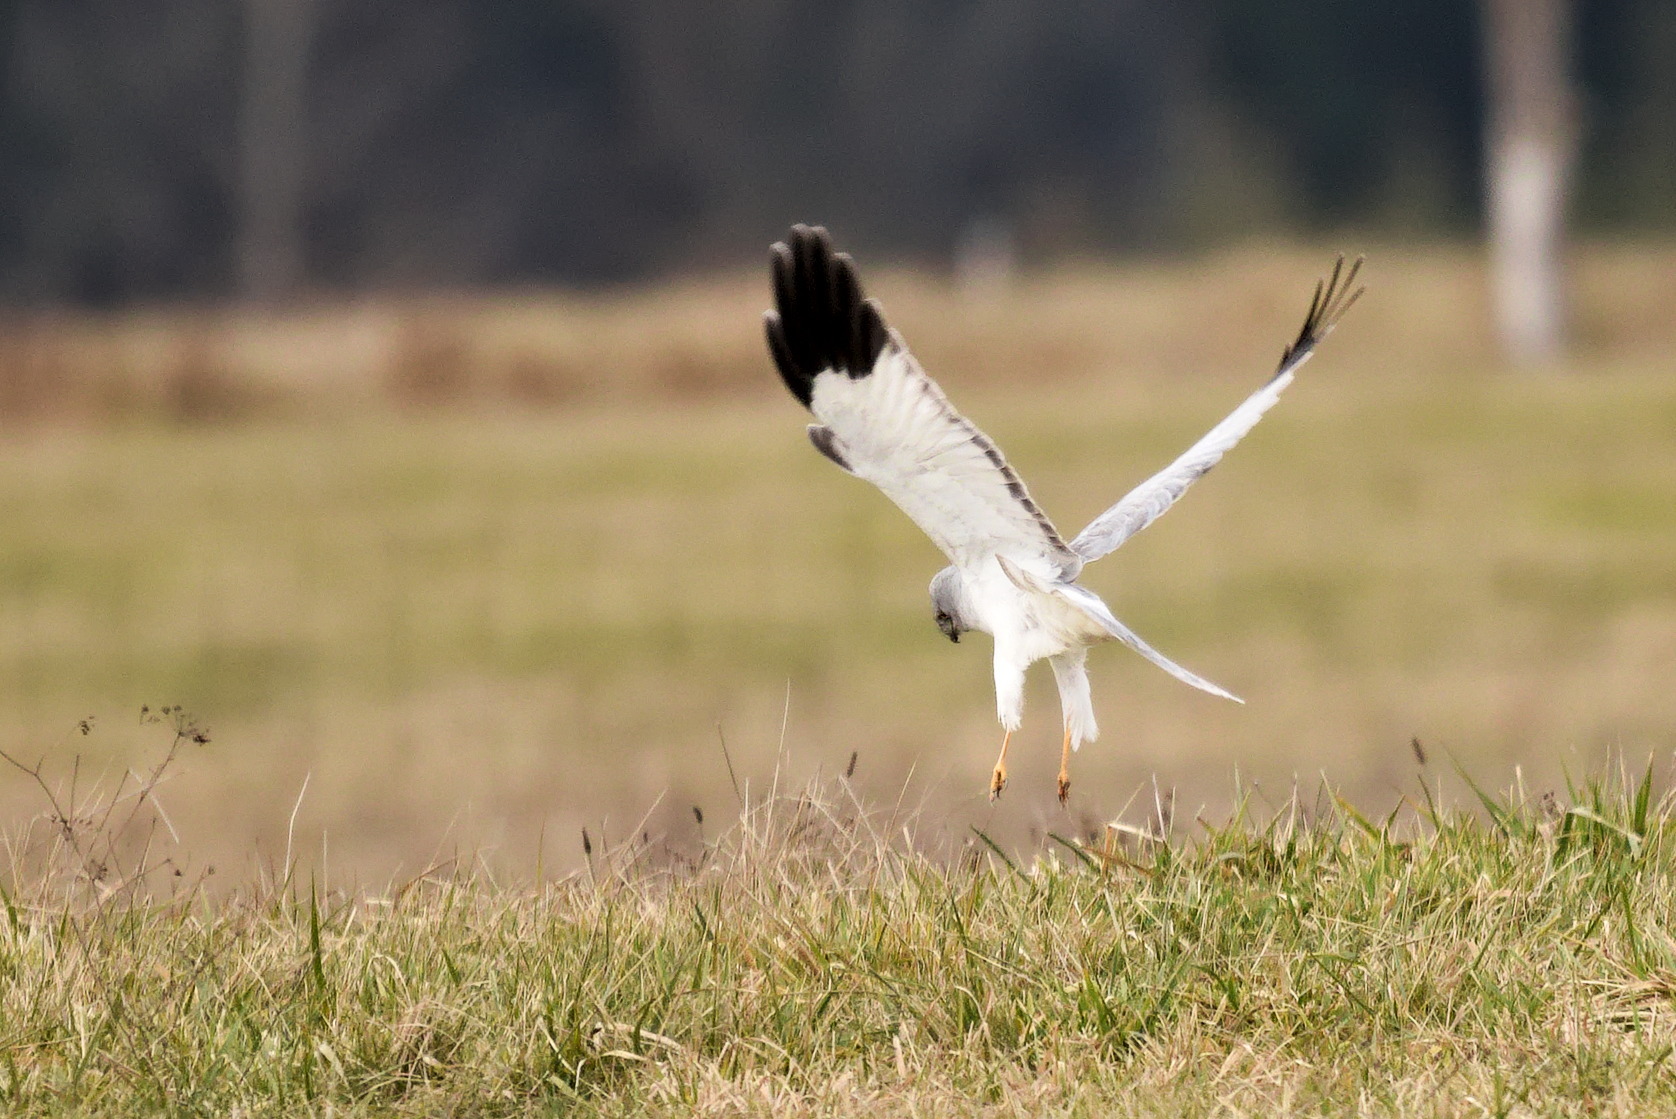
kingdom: Animalia
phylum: Chordata
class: Aves
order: Accipitriformes
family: Accipitridae
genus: Circus
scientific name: Circus cyaneus
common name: Hen harrier
